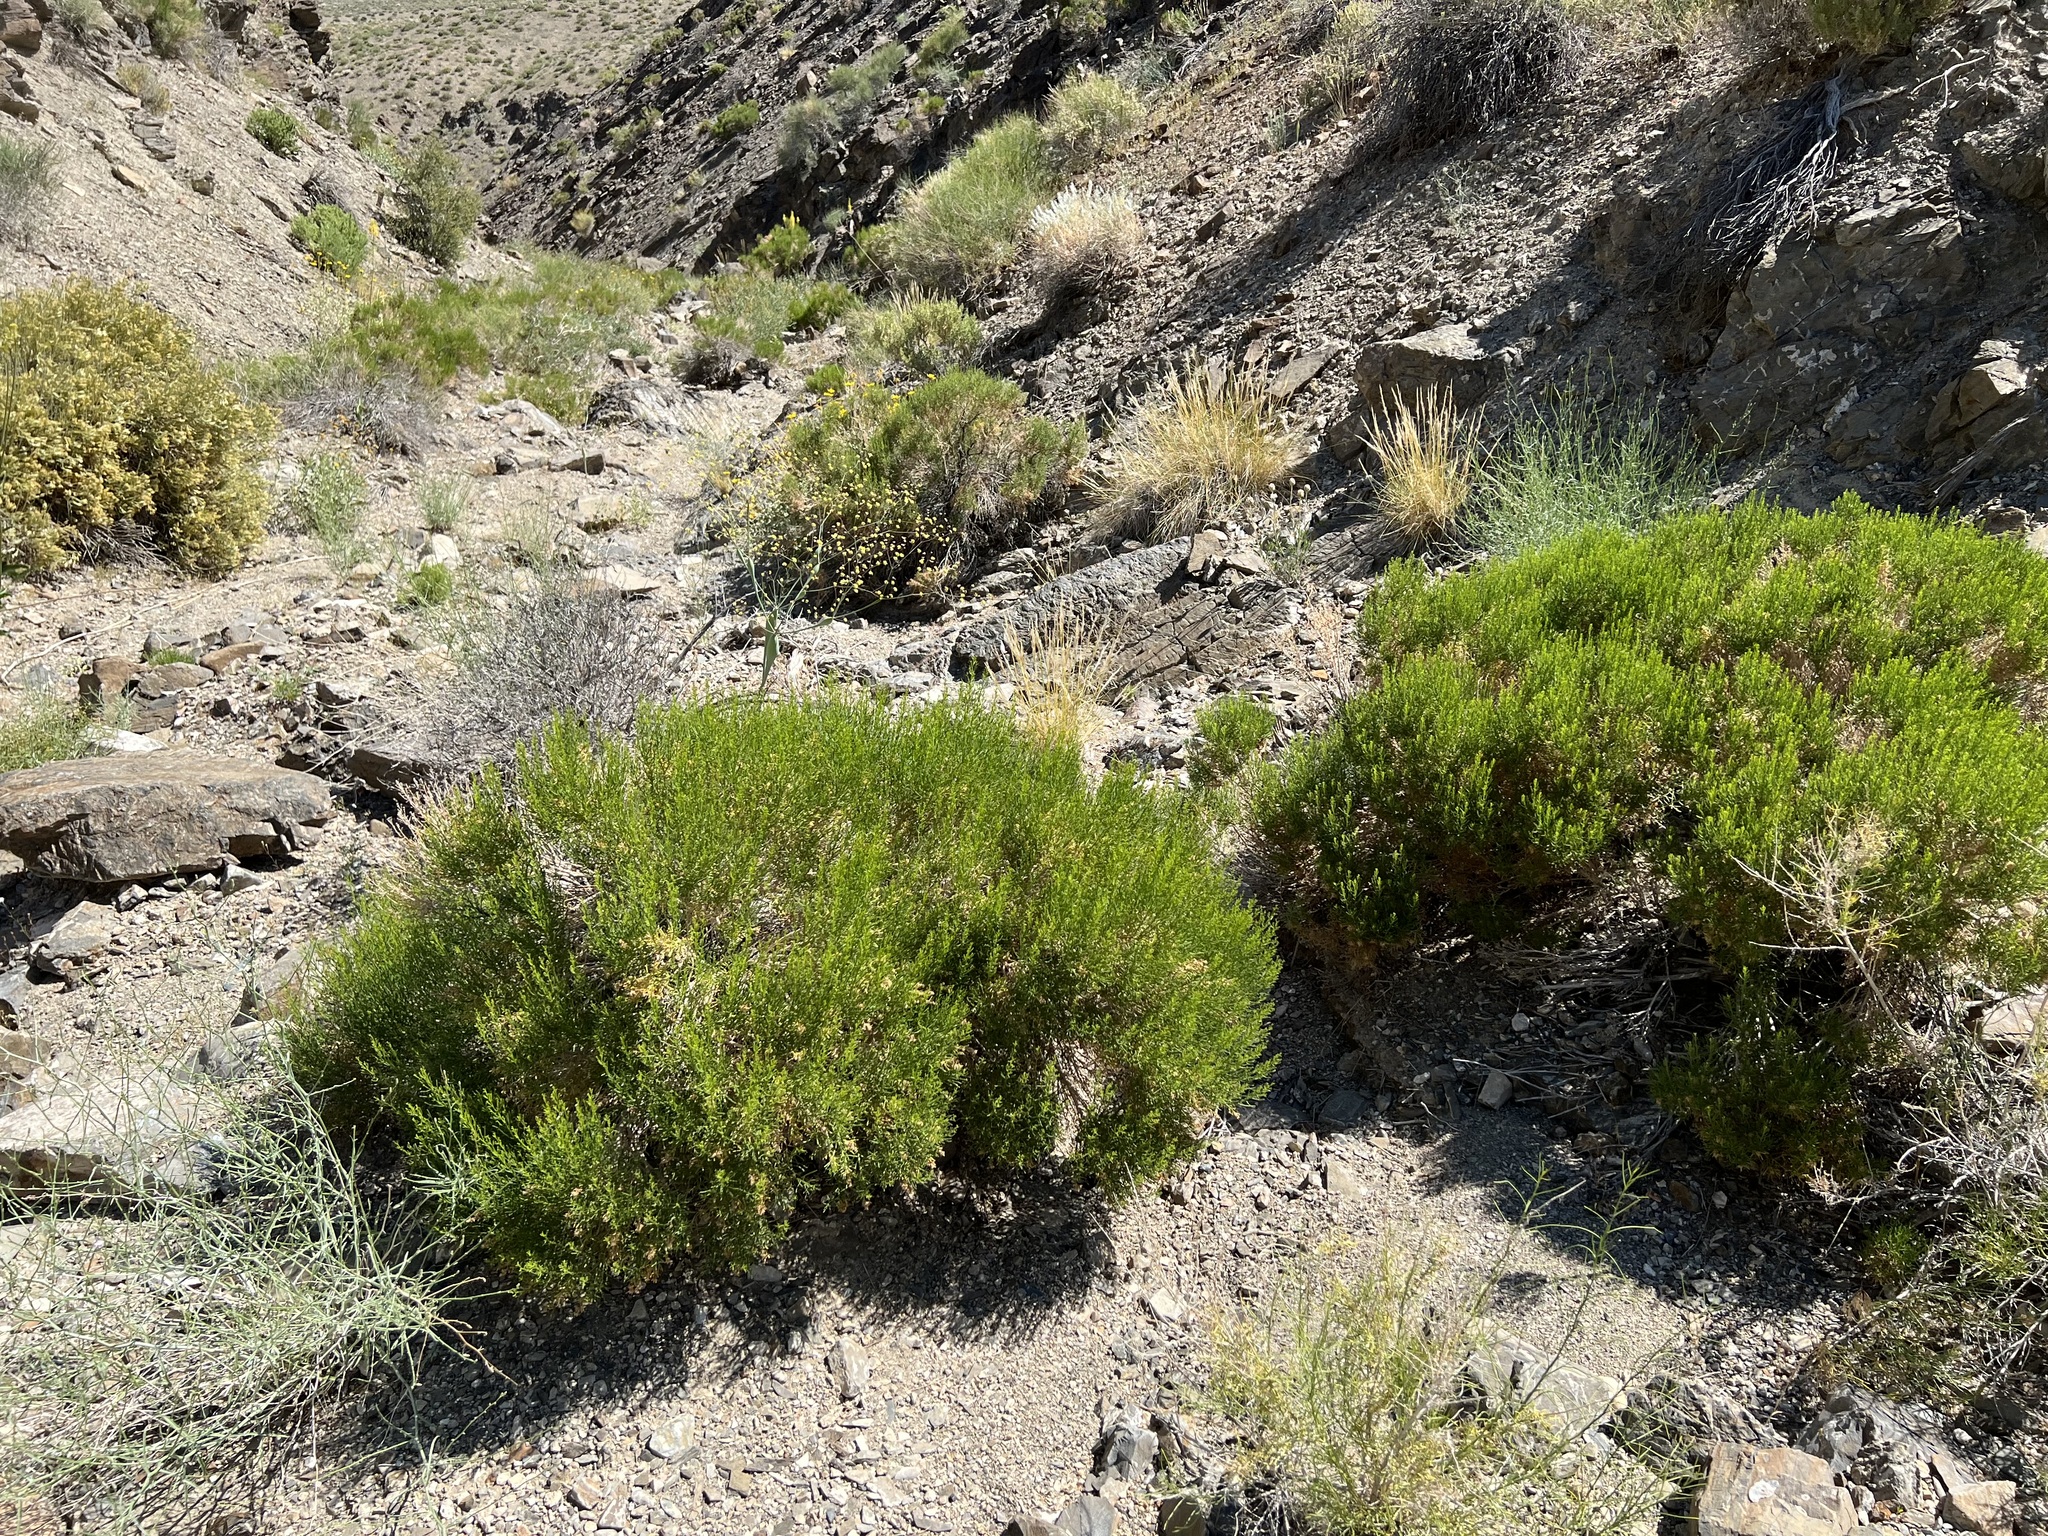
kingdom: Plantae
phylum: Tracheophyta
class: Magnoliopsida
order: Asterales
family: Asteraceae
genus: Ericameria
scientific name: Ericameria teretifolia
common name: Round-leaf rabbitbrush
